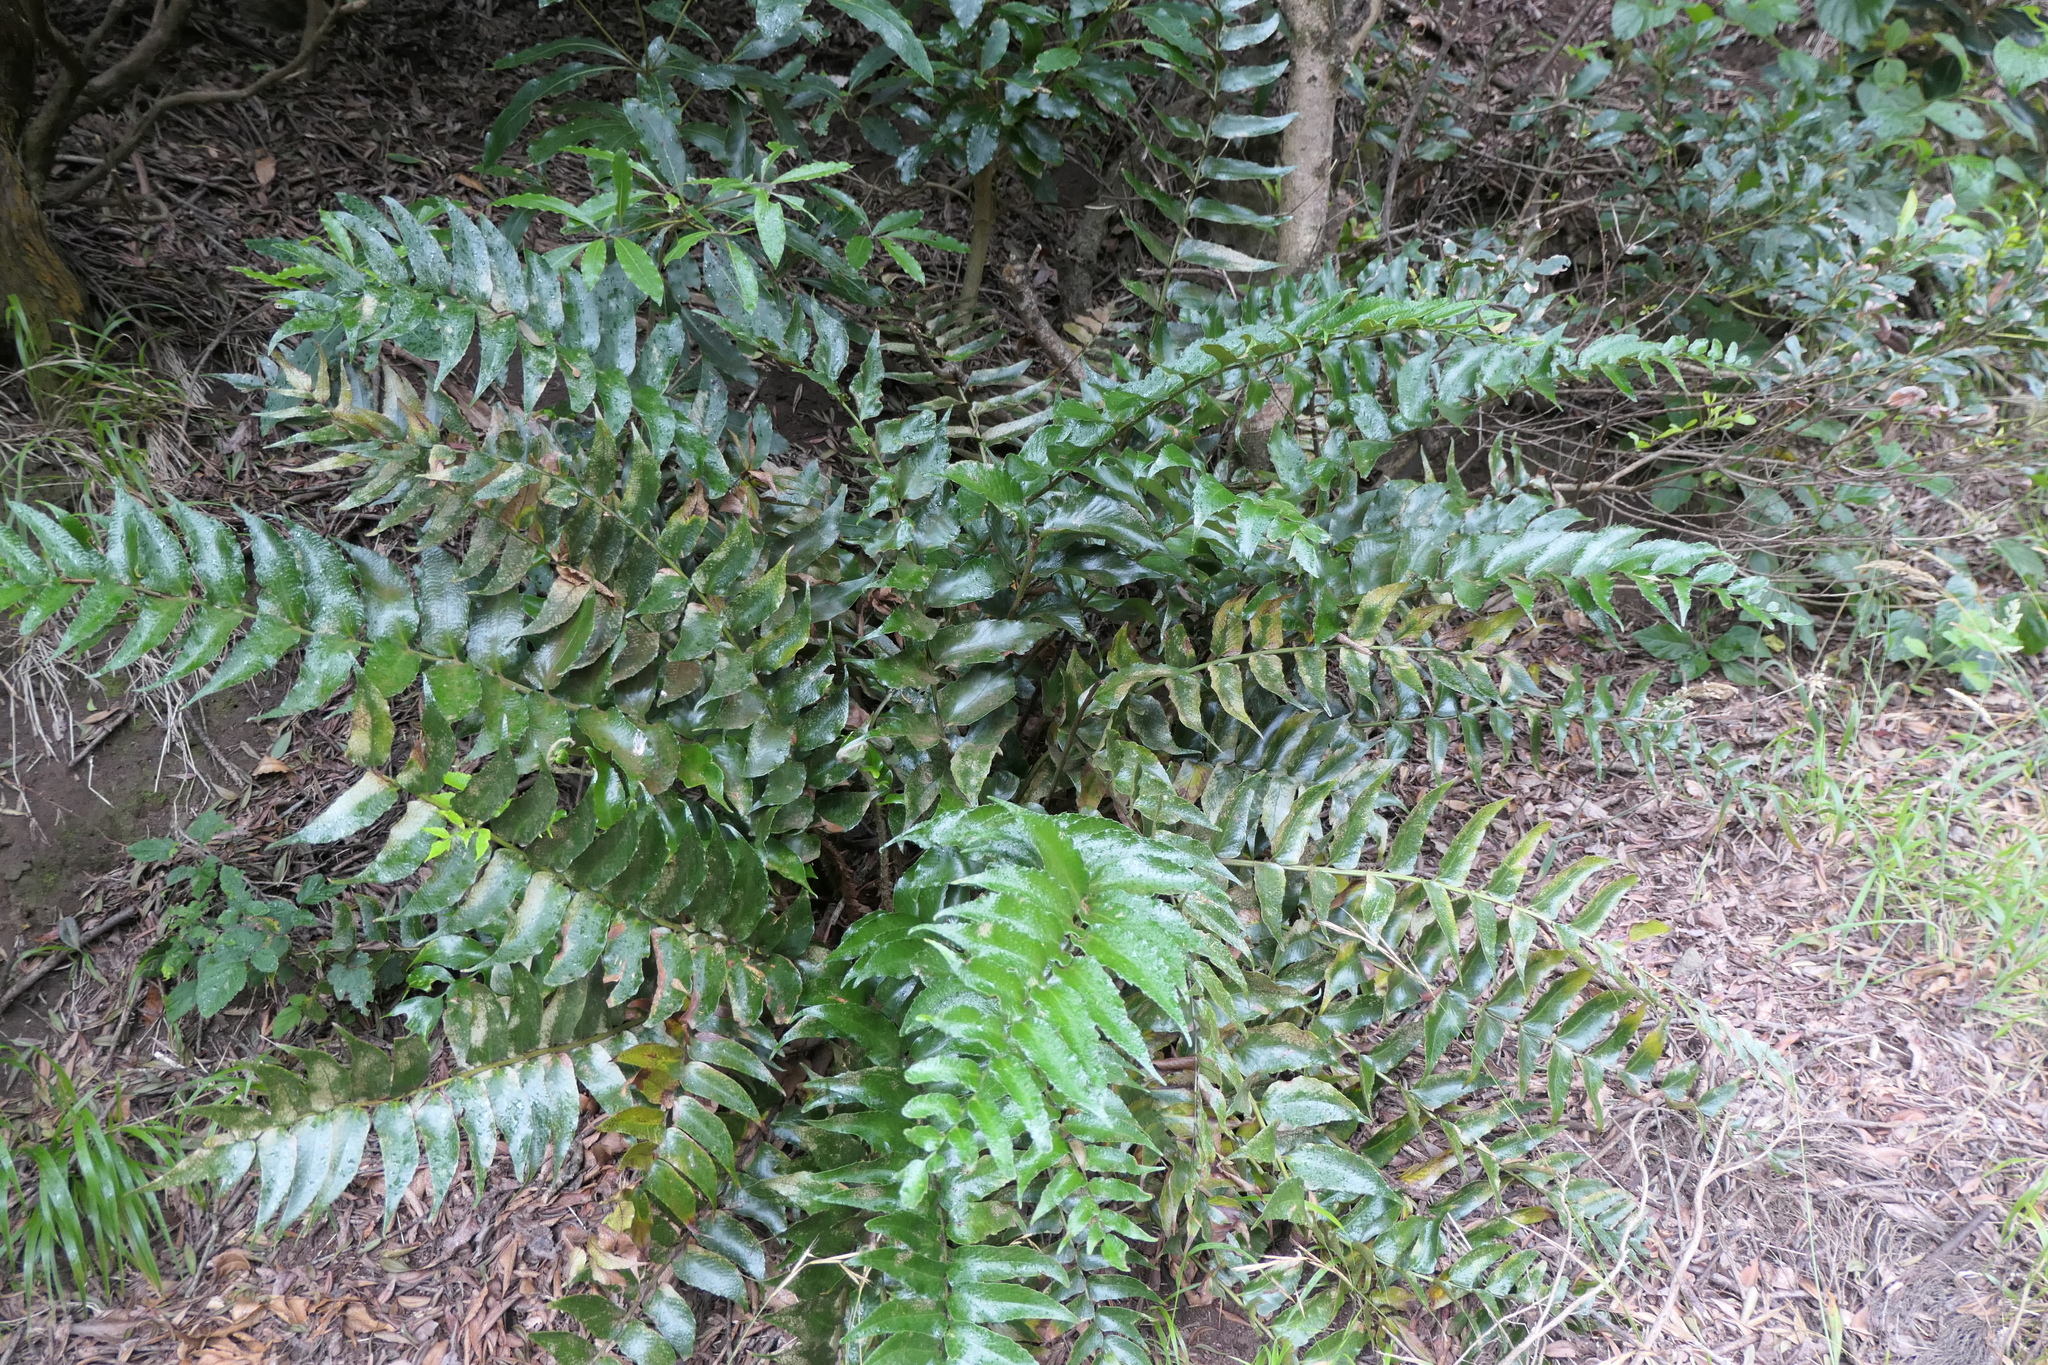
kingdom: Plantae
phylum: Tracheophyta
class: Polypodiopsida
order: Polypodiales
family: Dryopteridaceae
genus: Cyrtomium
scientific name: Cyrtomium falcatum
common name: House holly-fern
